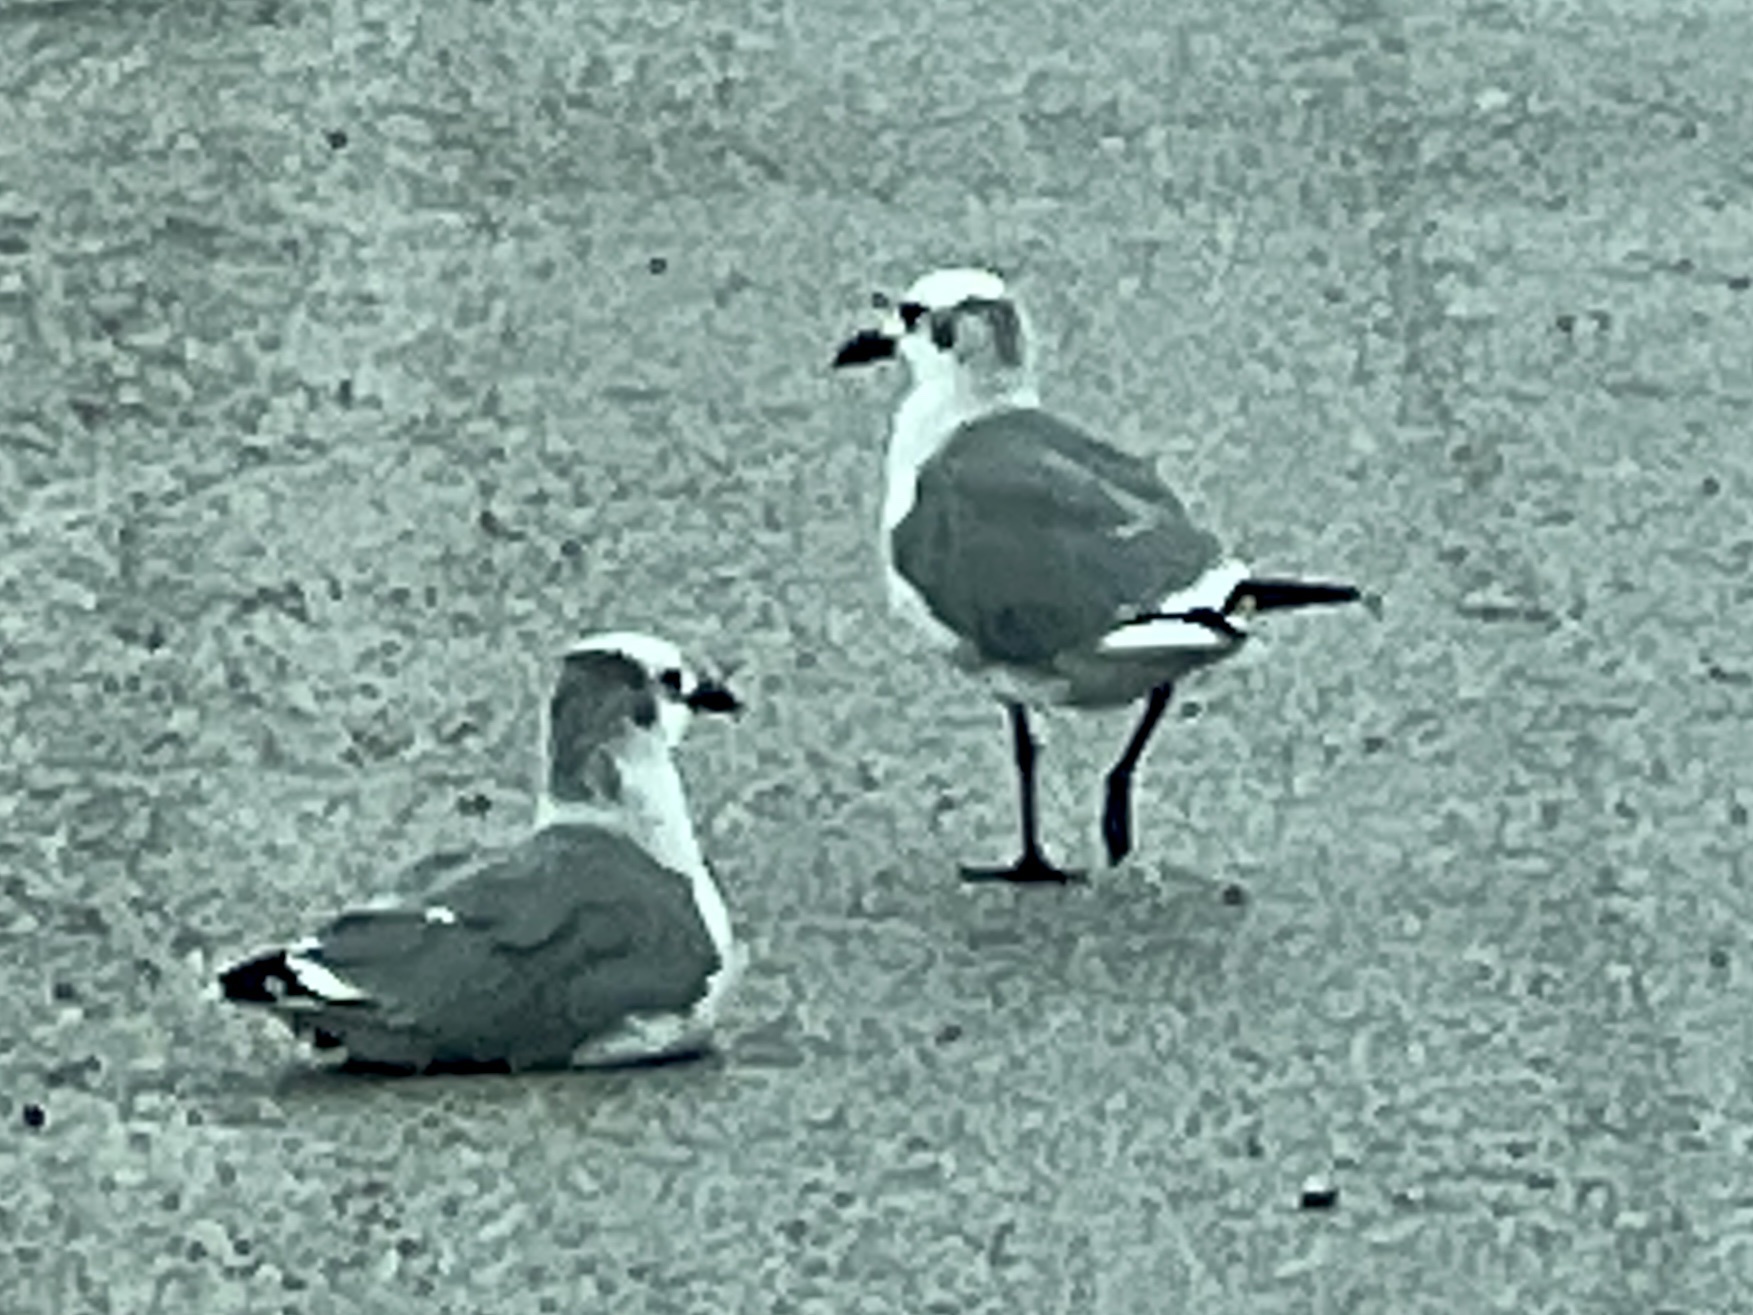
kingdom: Animalia
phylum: Chordata
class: Aves
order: Charadriiformes
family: Laridae
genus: Leucophaeus
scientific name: Leucophaeus atricilla
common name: Laughing gull
